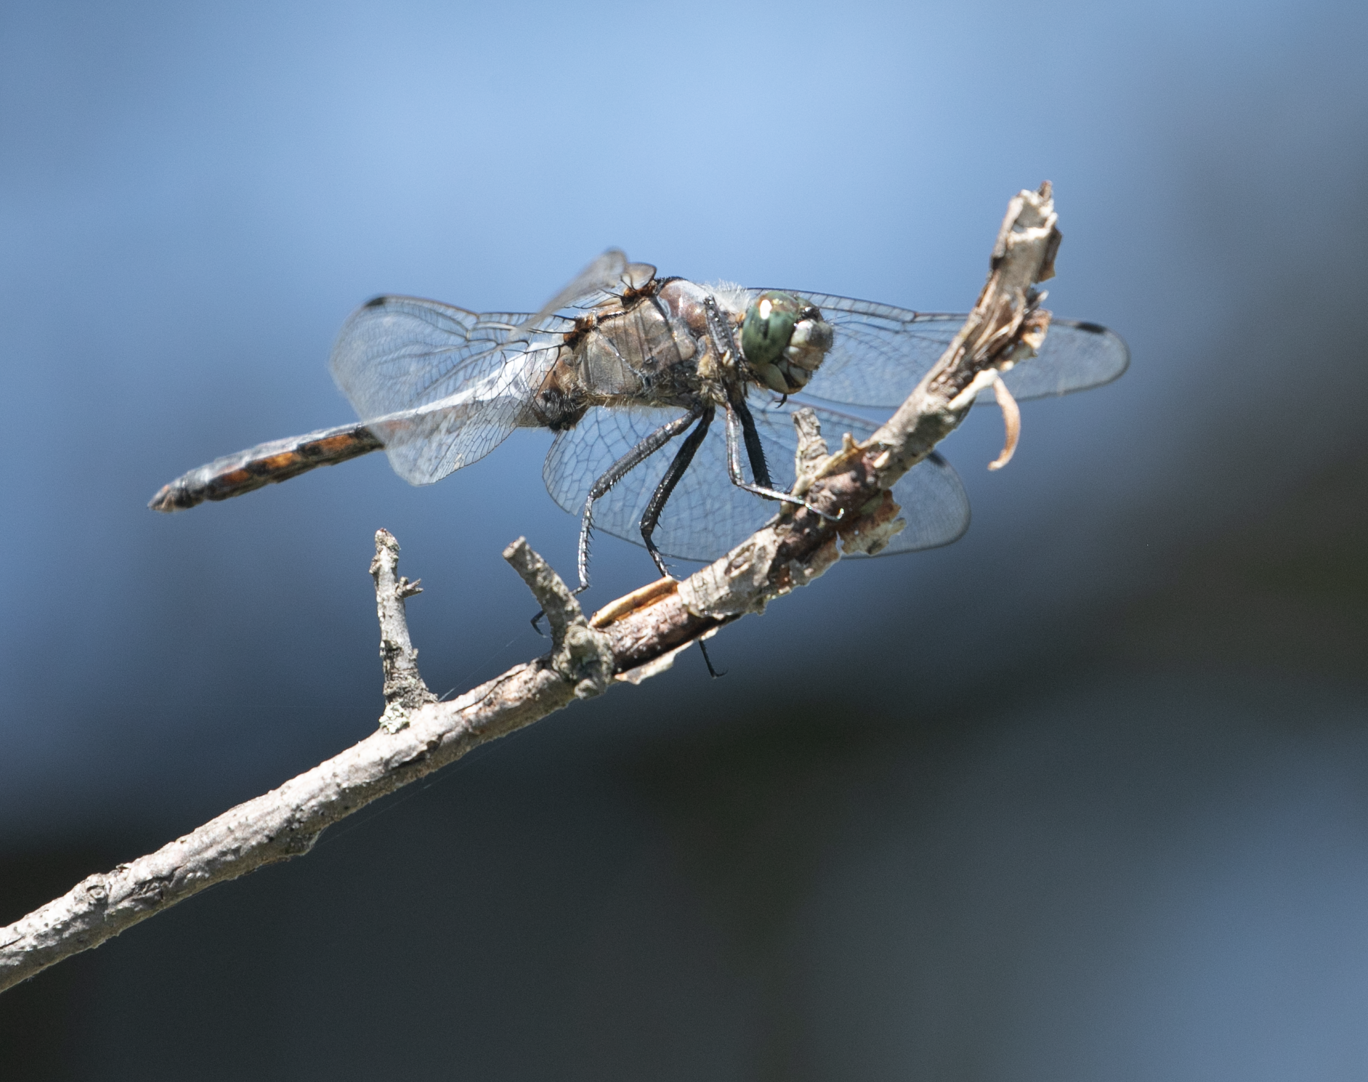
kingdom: Animalia
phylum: Arthropoda
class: Insecta
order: Odonata
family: Libellulidae
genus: Orthetrum
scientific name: Orthetrum cancellatum
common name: Black-tailed skimmer
